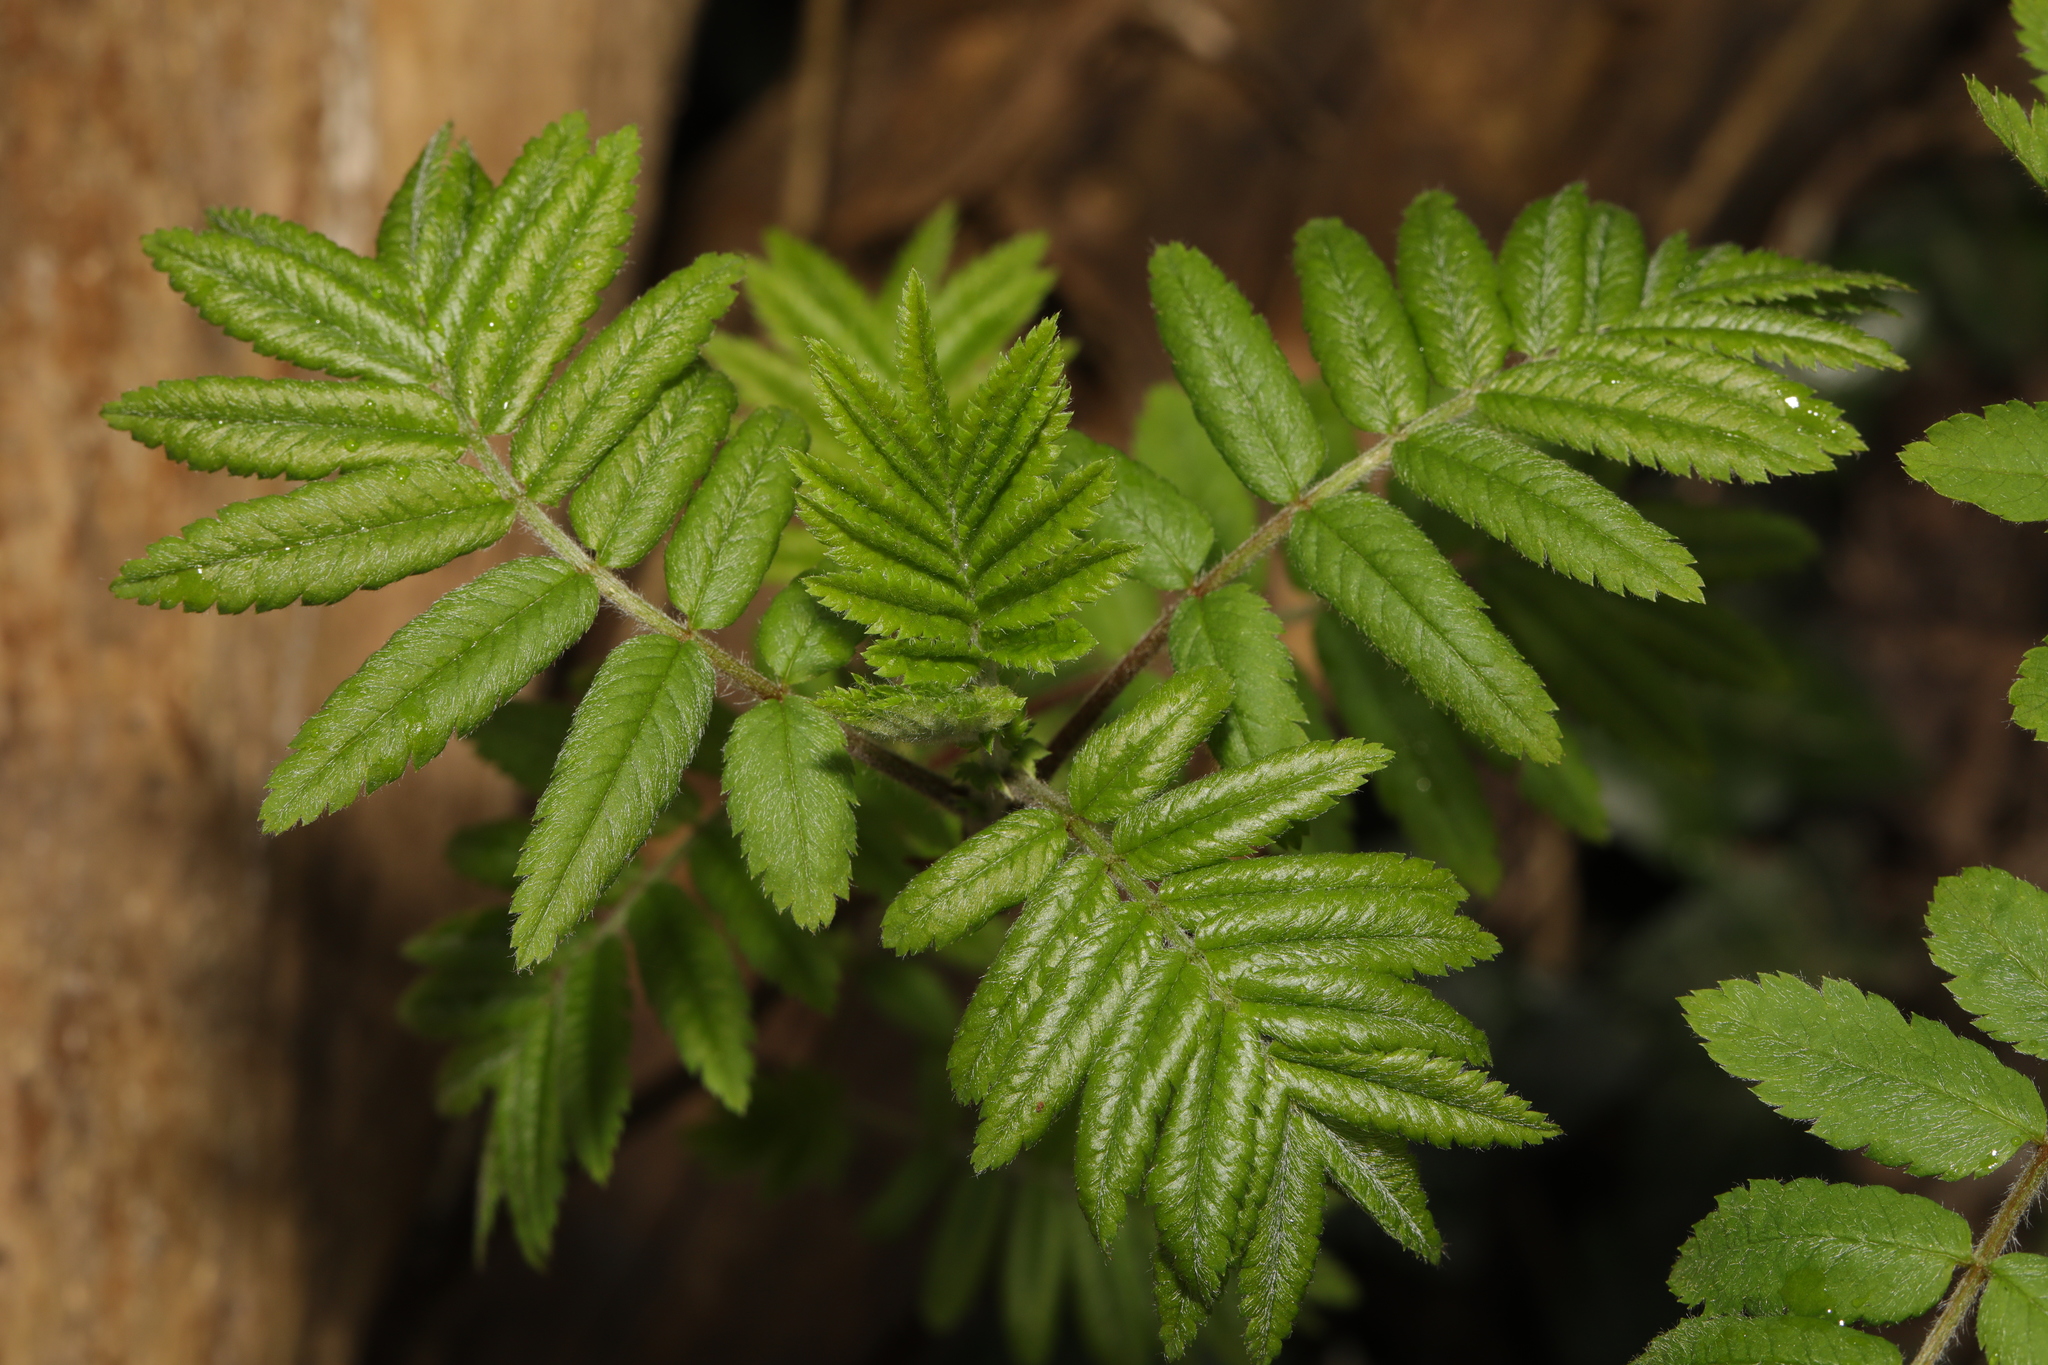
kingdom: Plantae
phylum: Tracheophyta
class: Magnoliopsida
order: Rosales
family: Rosaceae
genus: Sorbus
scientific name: Sorbus aucuparia
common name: Rowan
